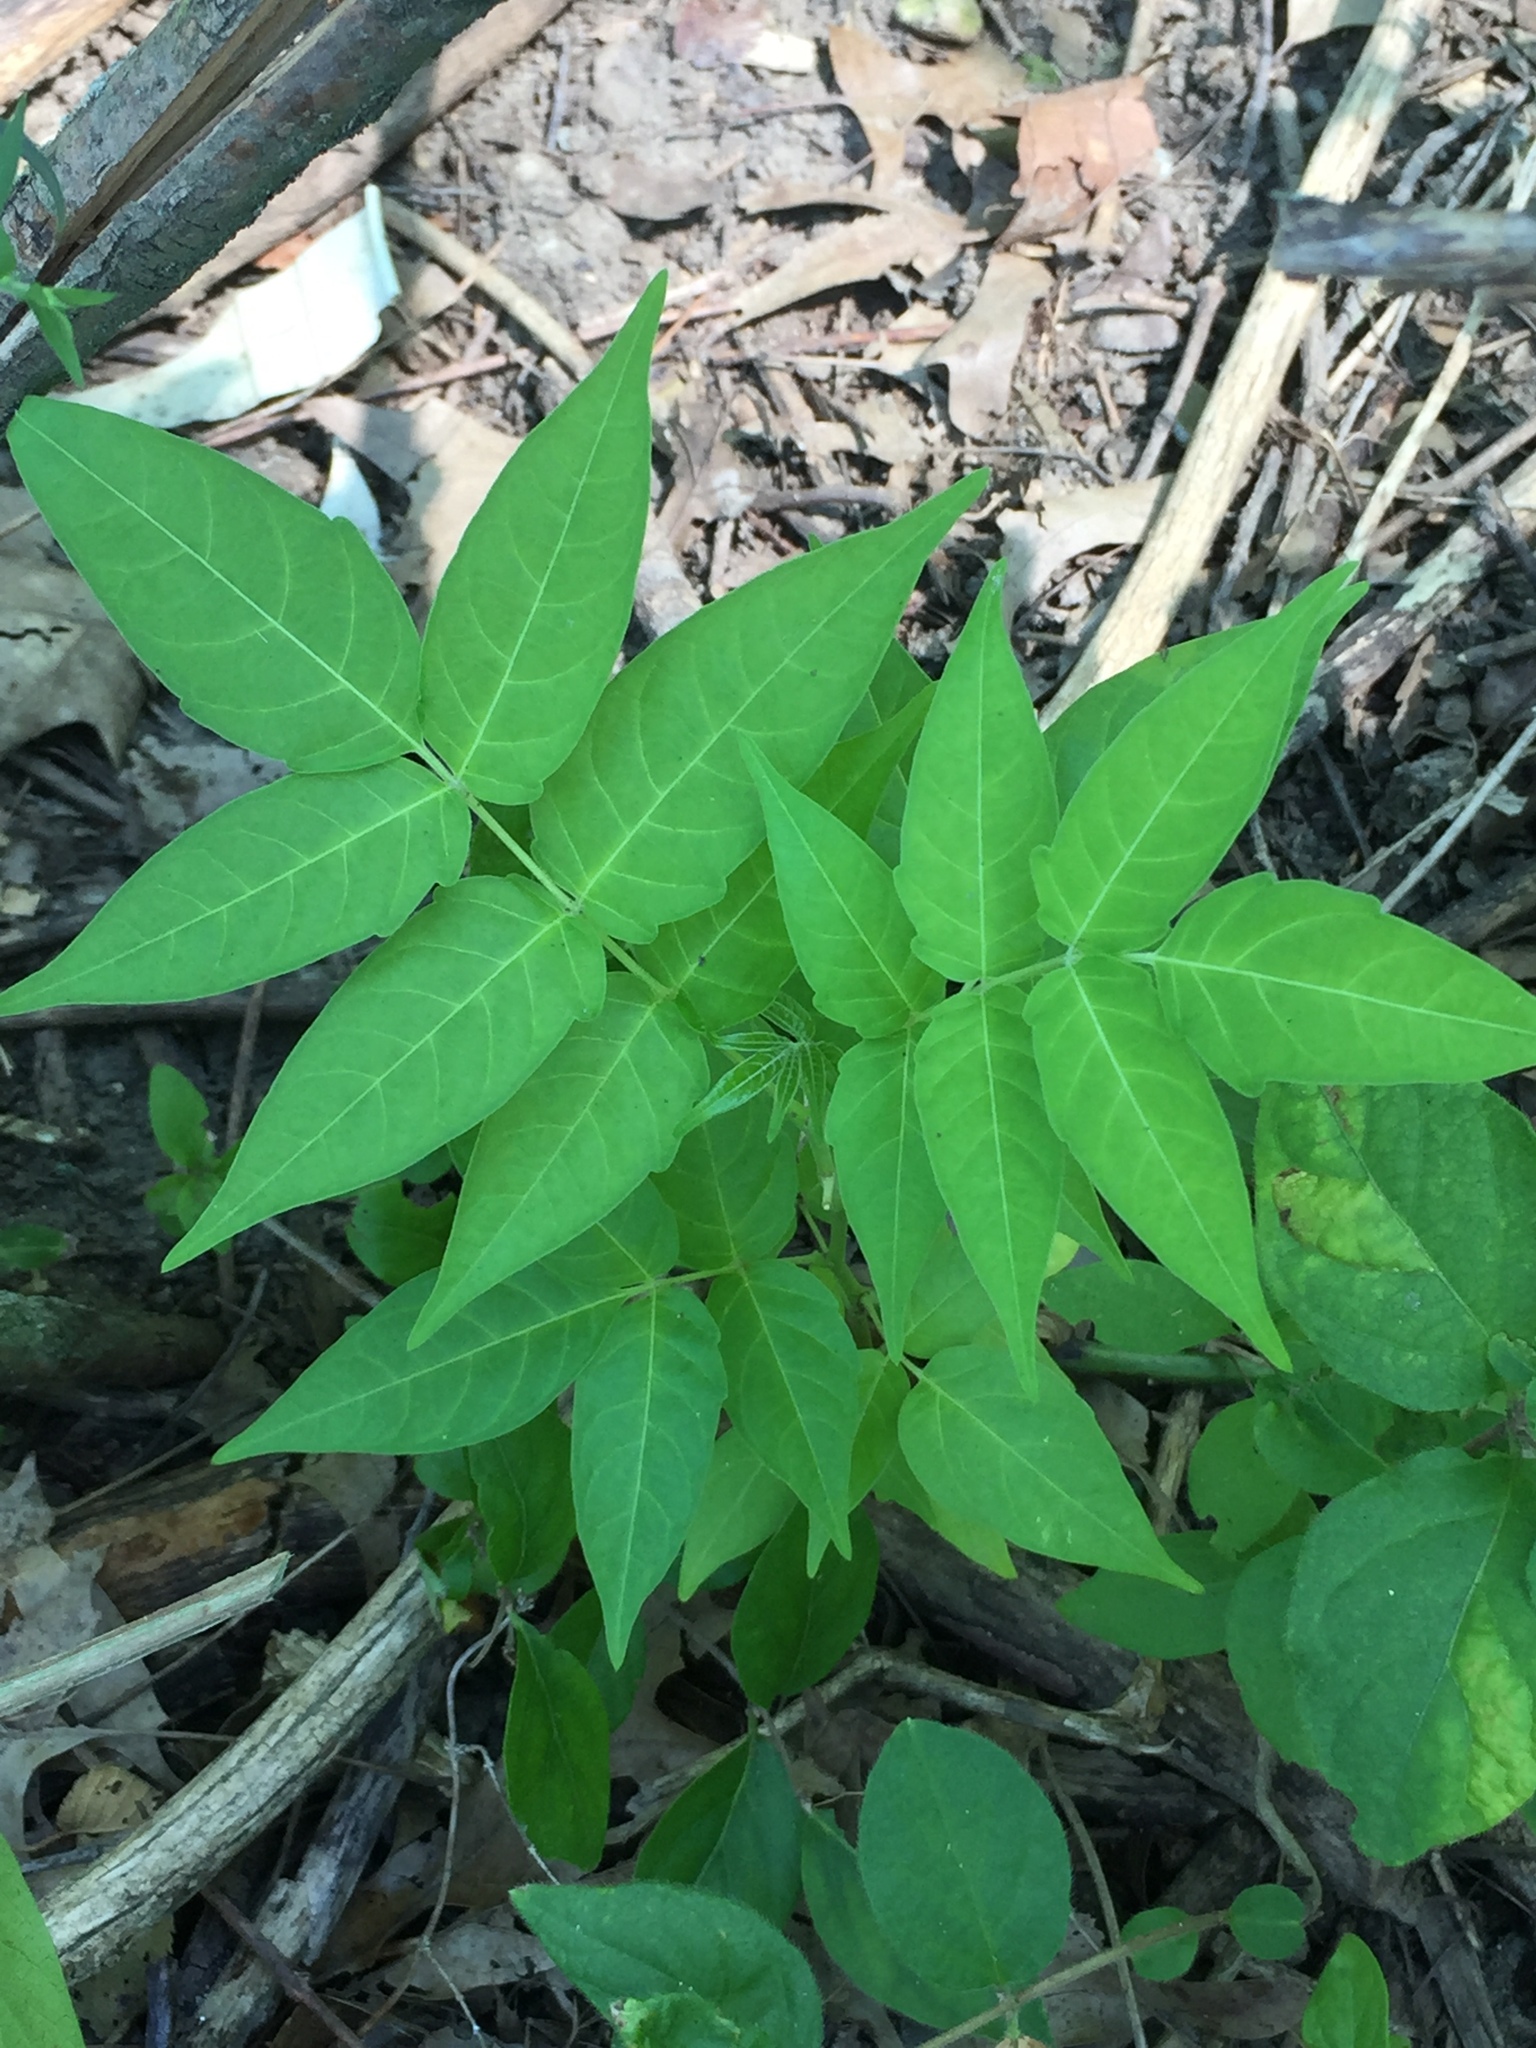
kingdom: Plantae
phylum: Tracheophyta
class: Magnoliopsida
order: Sapindales
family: Simaroubaceae
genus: Ailanthus
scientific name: Ailanthus altissima
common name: Tree-of-heaven
